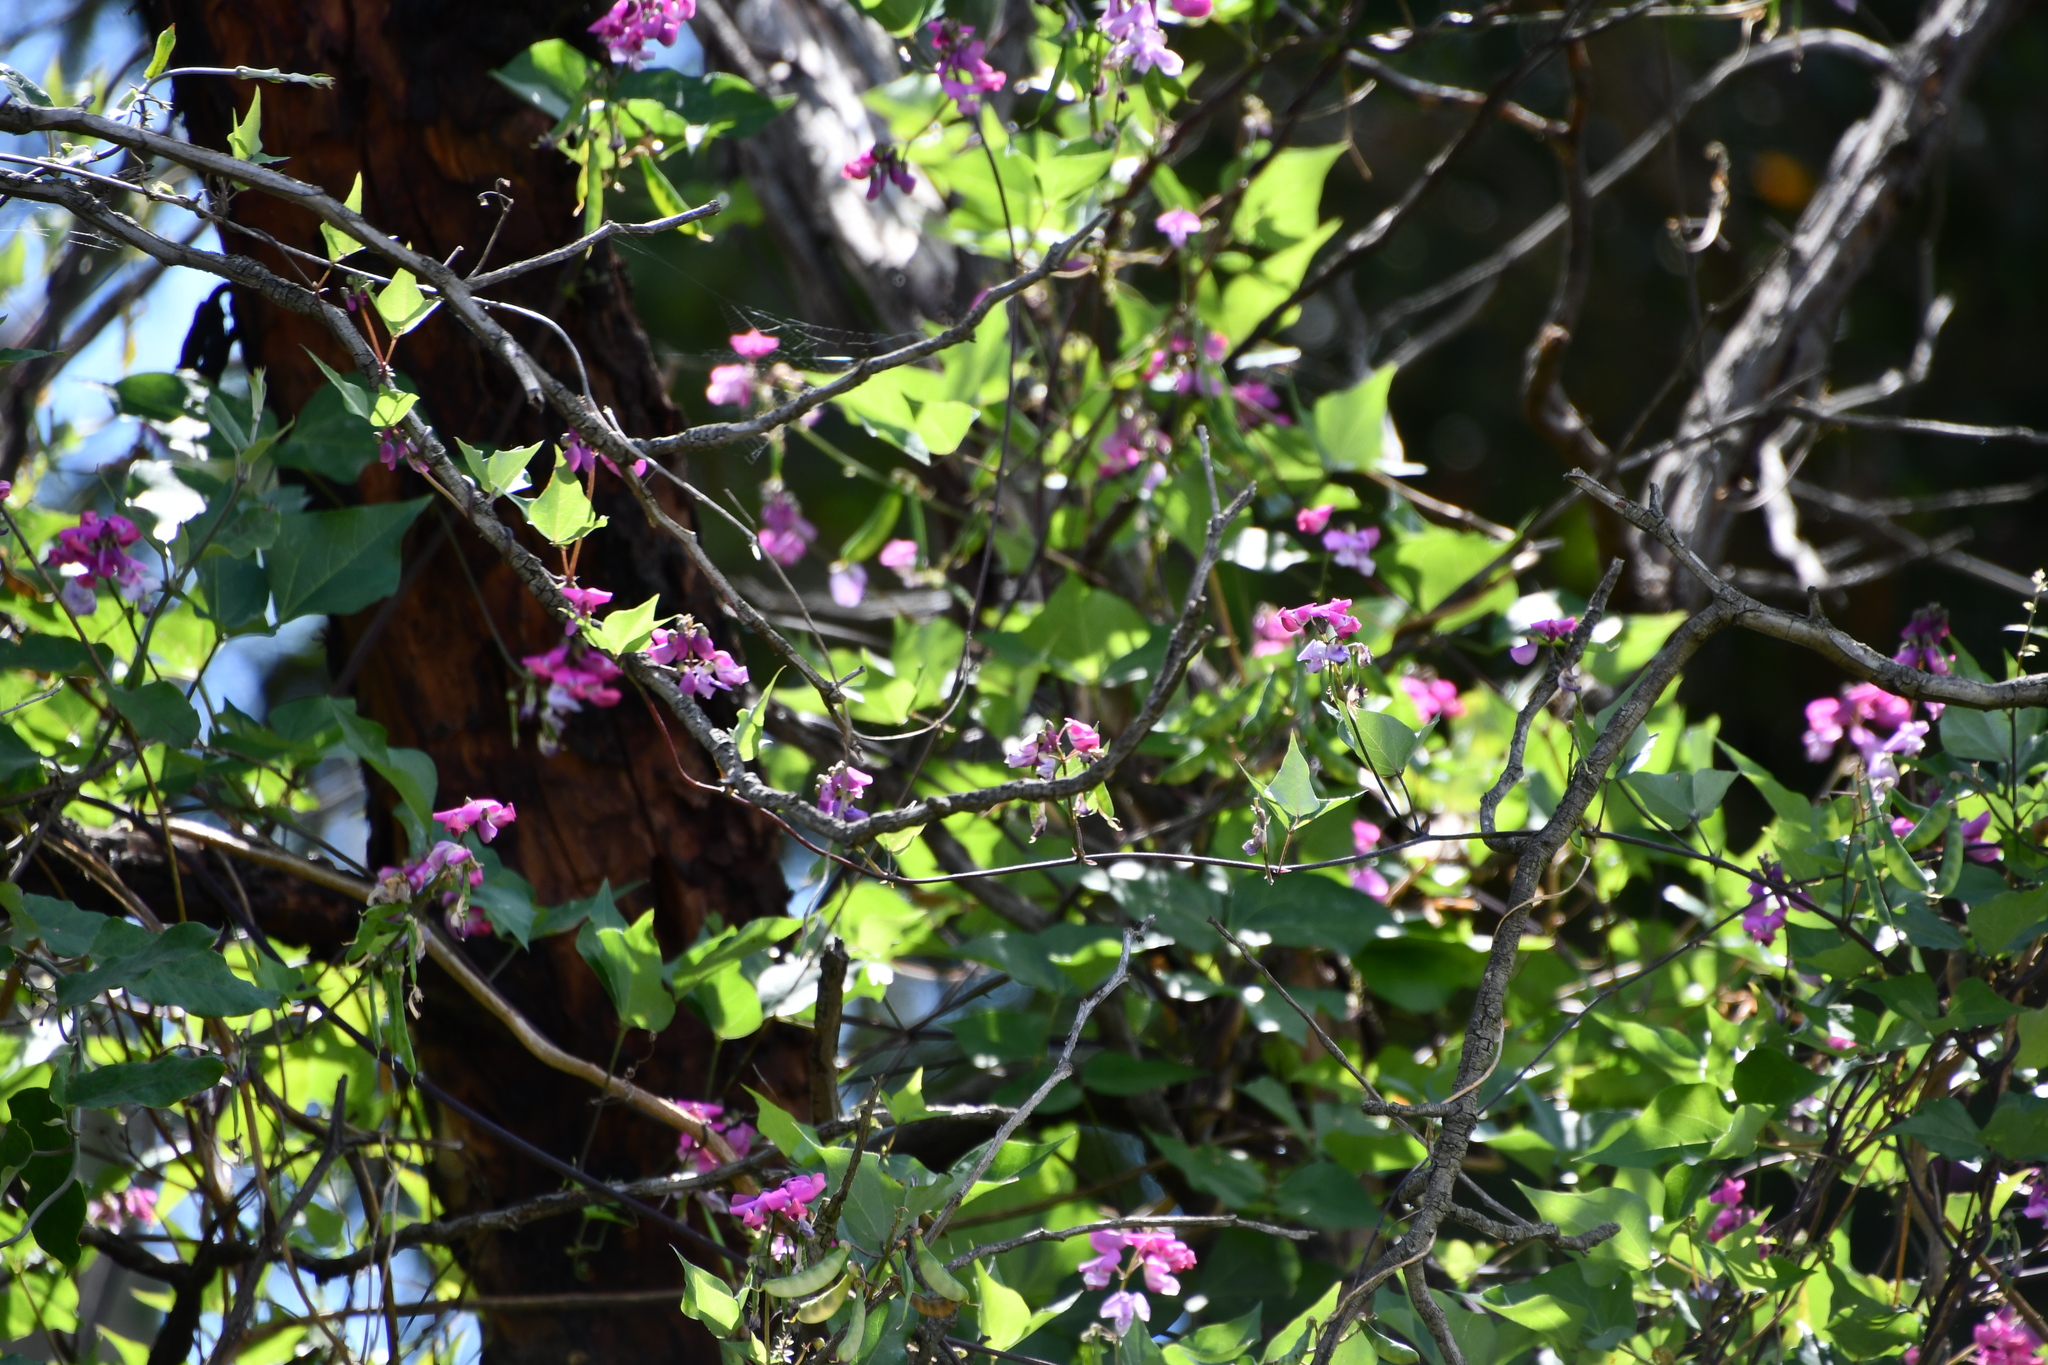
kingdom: Plantae
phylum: Tracheophyta
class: Magnoliopsida
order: Fabales
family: Fabaceae
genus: Dipogon
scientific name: Dipogon lignosus
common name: Okie bean
